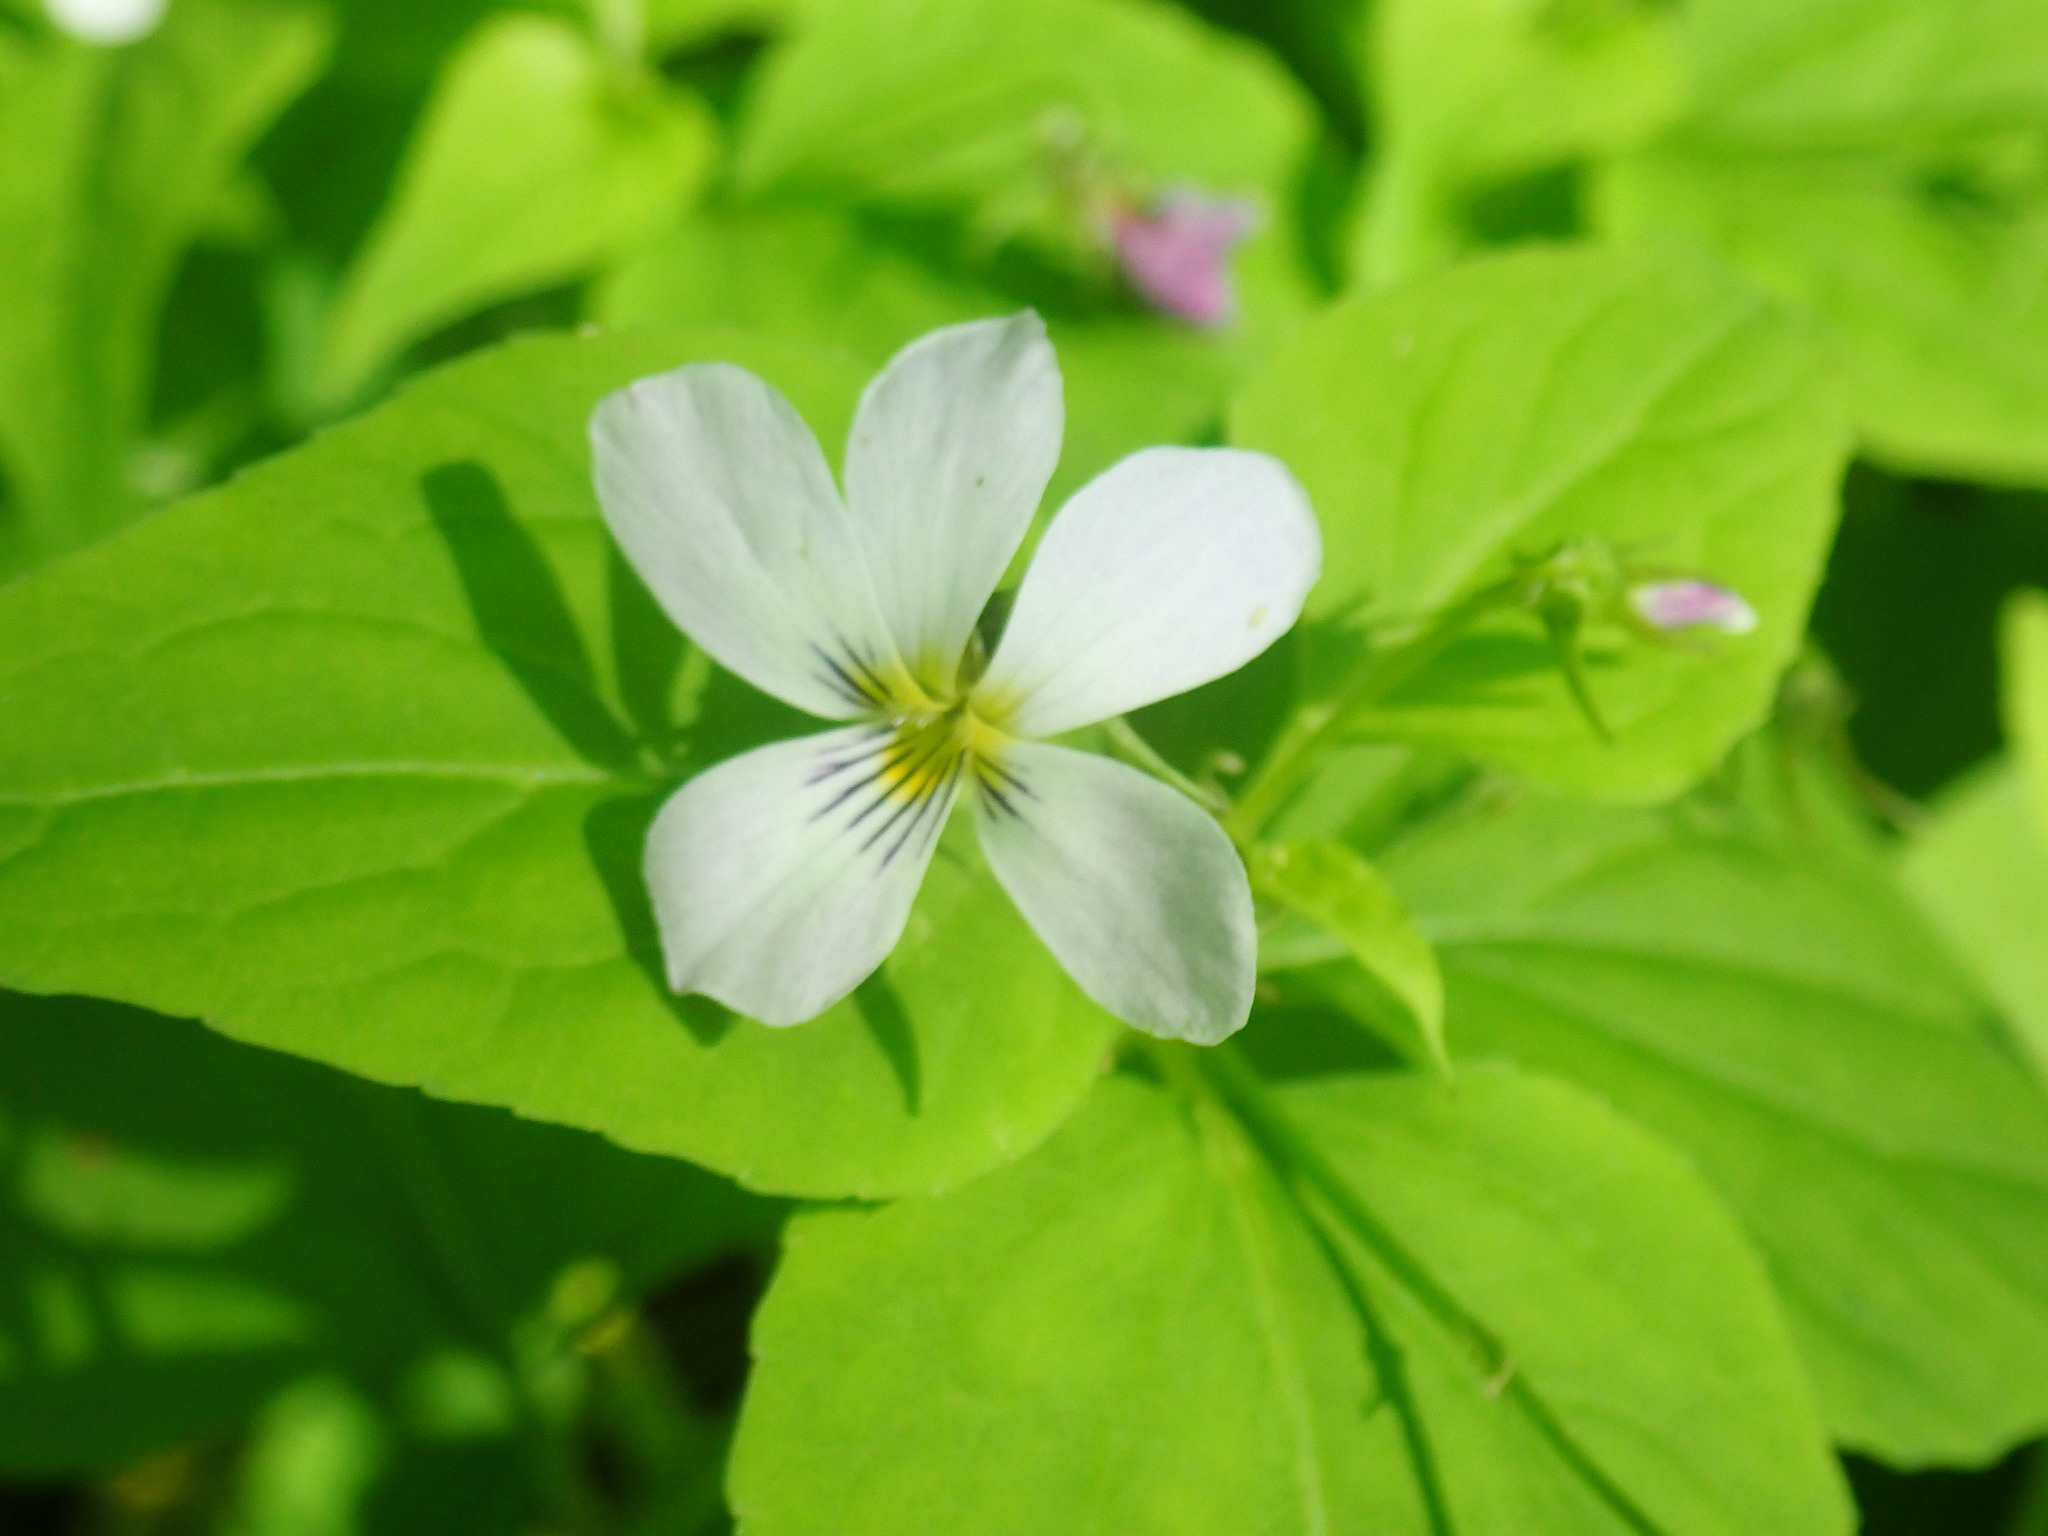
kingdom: Plantae
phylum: Tracheophyta
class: Magnoliopsida
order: Malpighiales
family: Violaceae
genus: Viola
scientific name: Viola canadensis
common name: Canada violet
